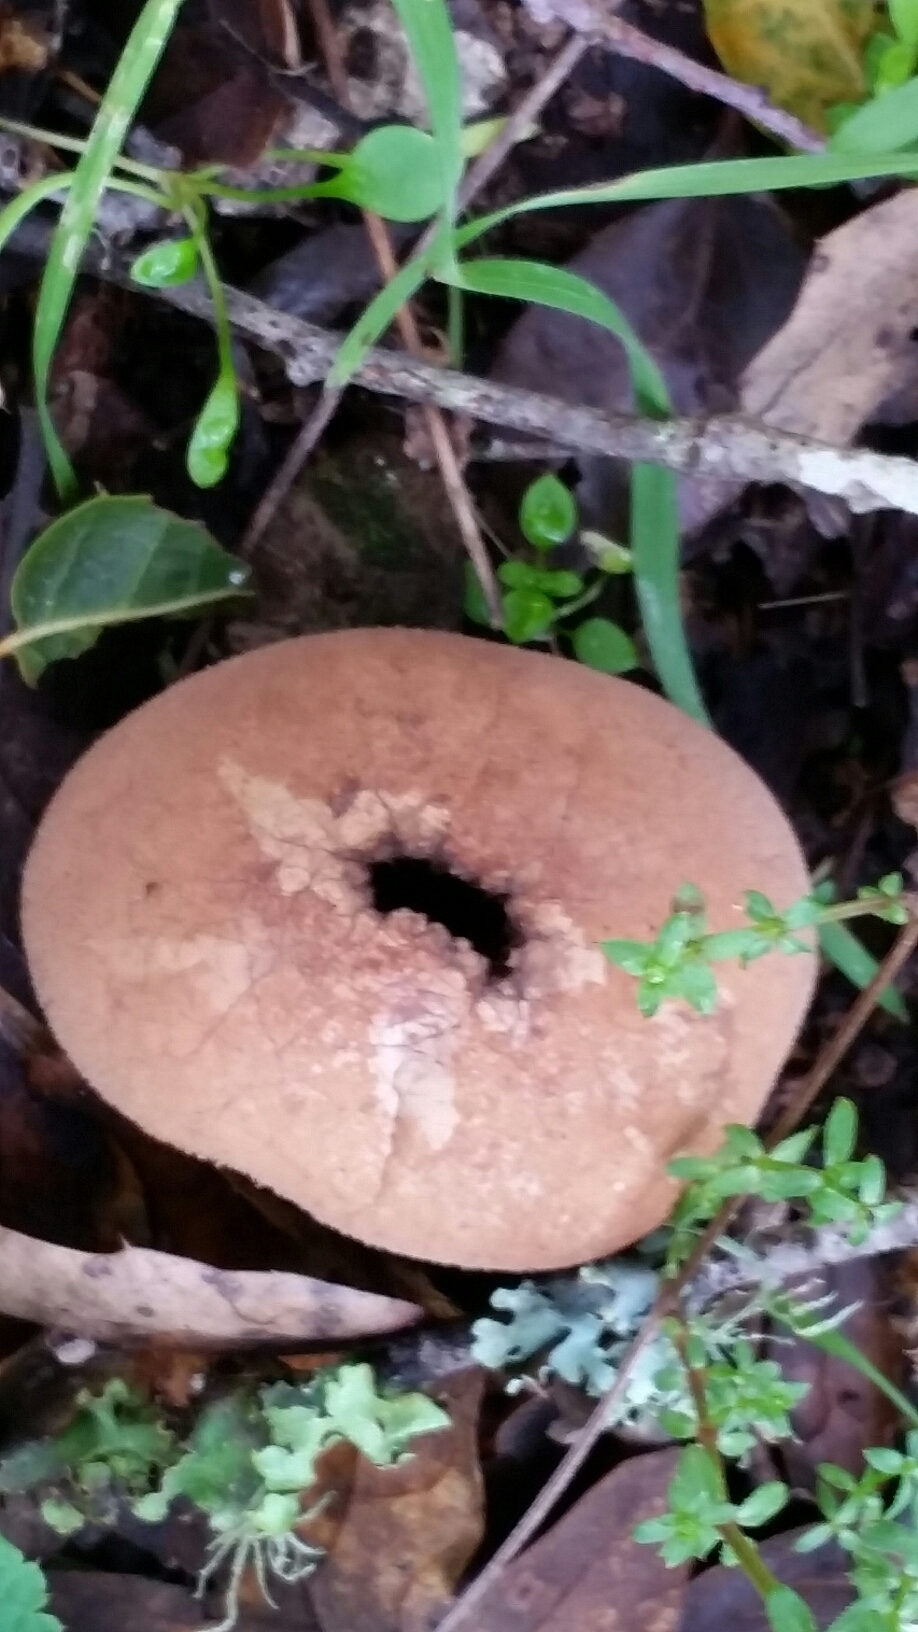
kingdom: Fungi
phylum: Basidiomycota
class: Agaricomycetes
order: Agaricales
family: Lycoperdaceae
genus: Lycoperdon
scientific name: Lycoperdon perlatum
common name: Common puffball
